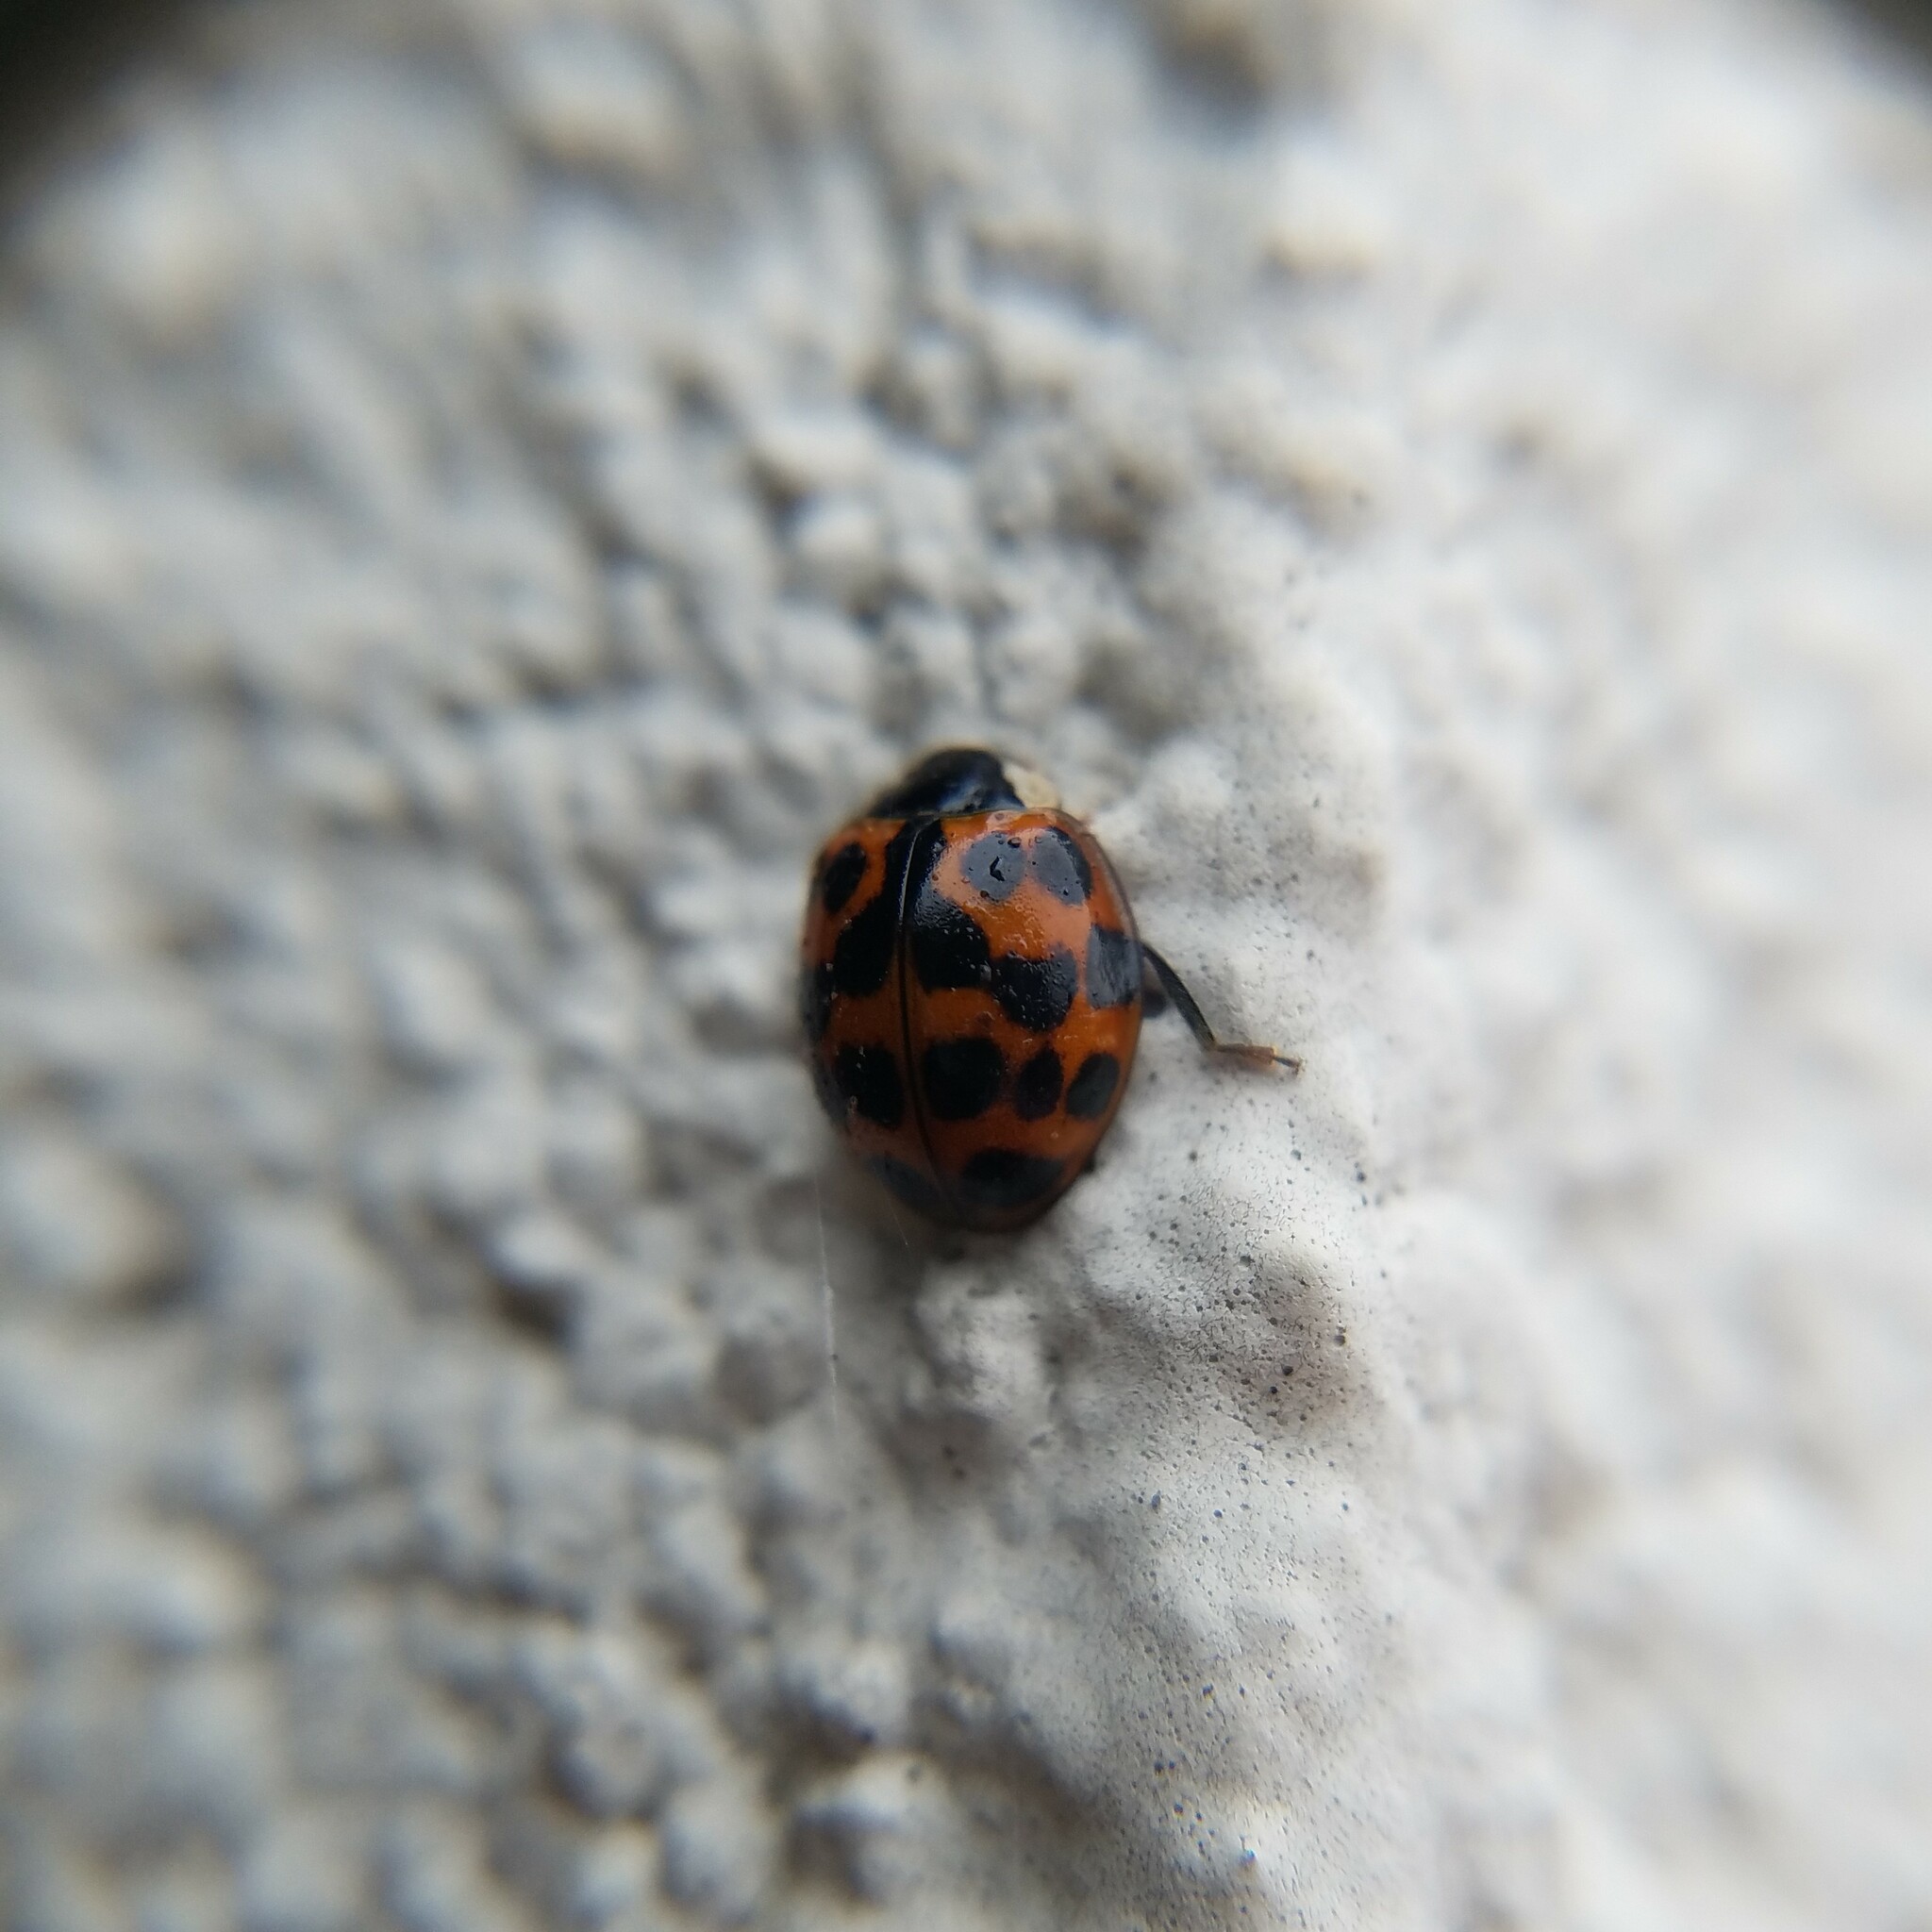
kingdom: Animalia
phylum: Arthropoda
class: Insecta
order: Coleoptera
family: Coccinellidae
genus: Harmonia
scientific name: Harmonia axyridis
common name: Harlequin ladybird
